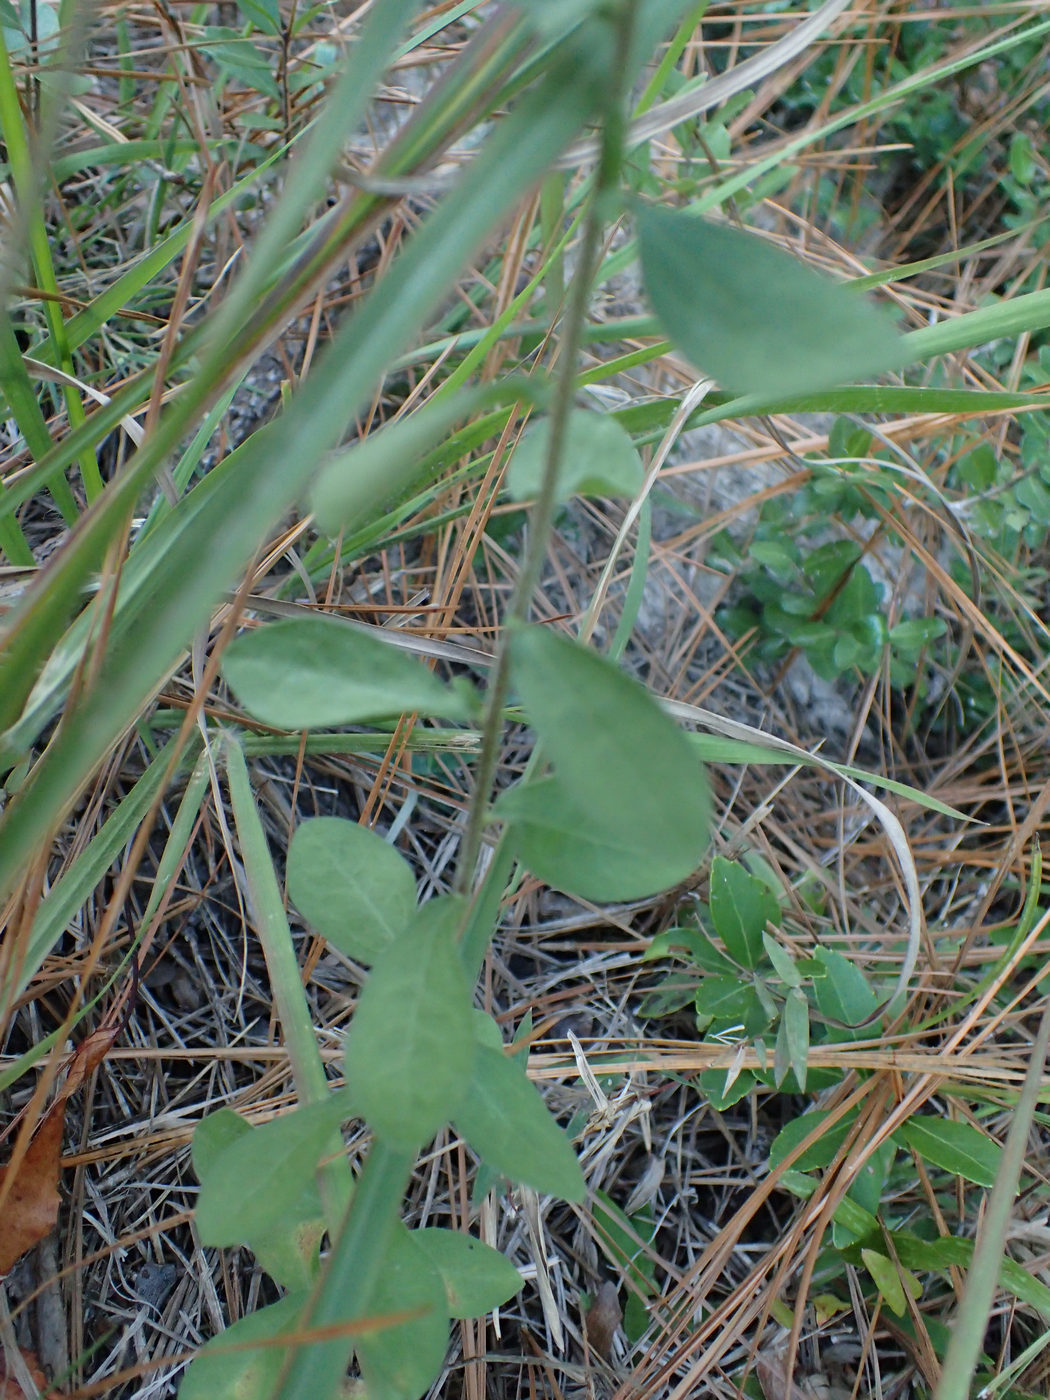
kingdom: Plantae
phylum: Tracheophyta
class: Magnoliopsida
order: Asterales
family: Asteraceae
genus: Sericocarpus
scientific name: Sericocarpus tortifolius
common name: Dixie aster
